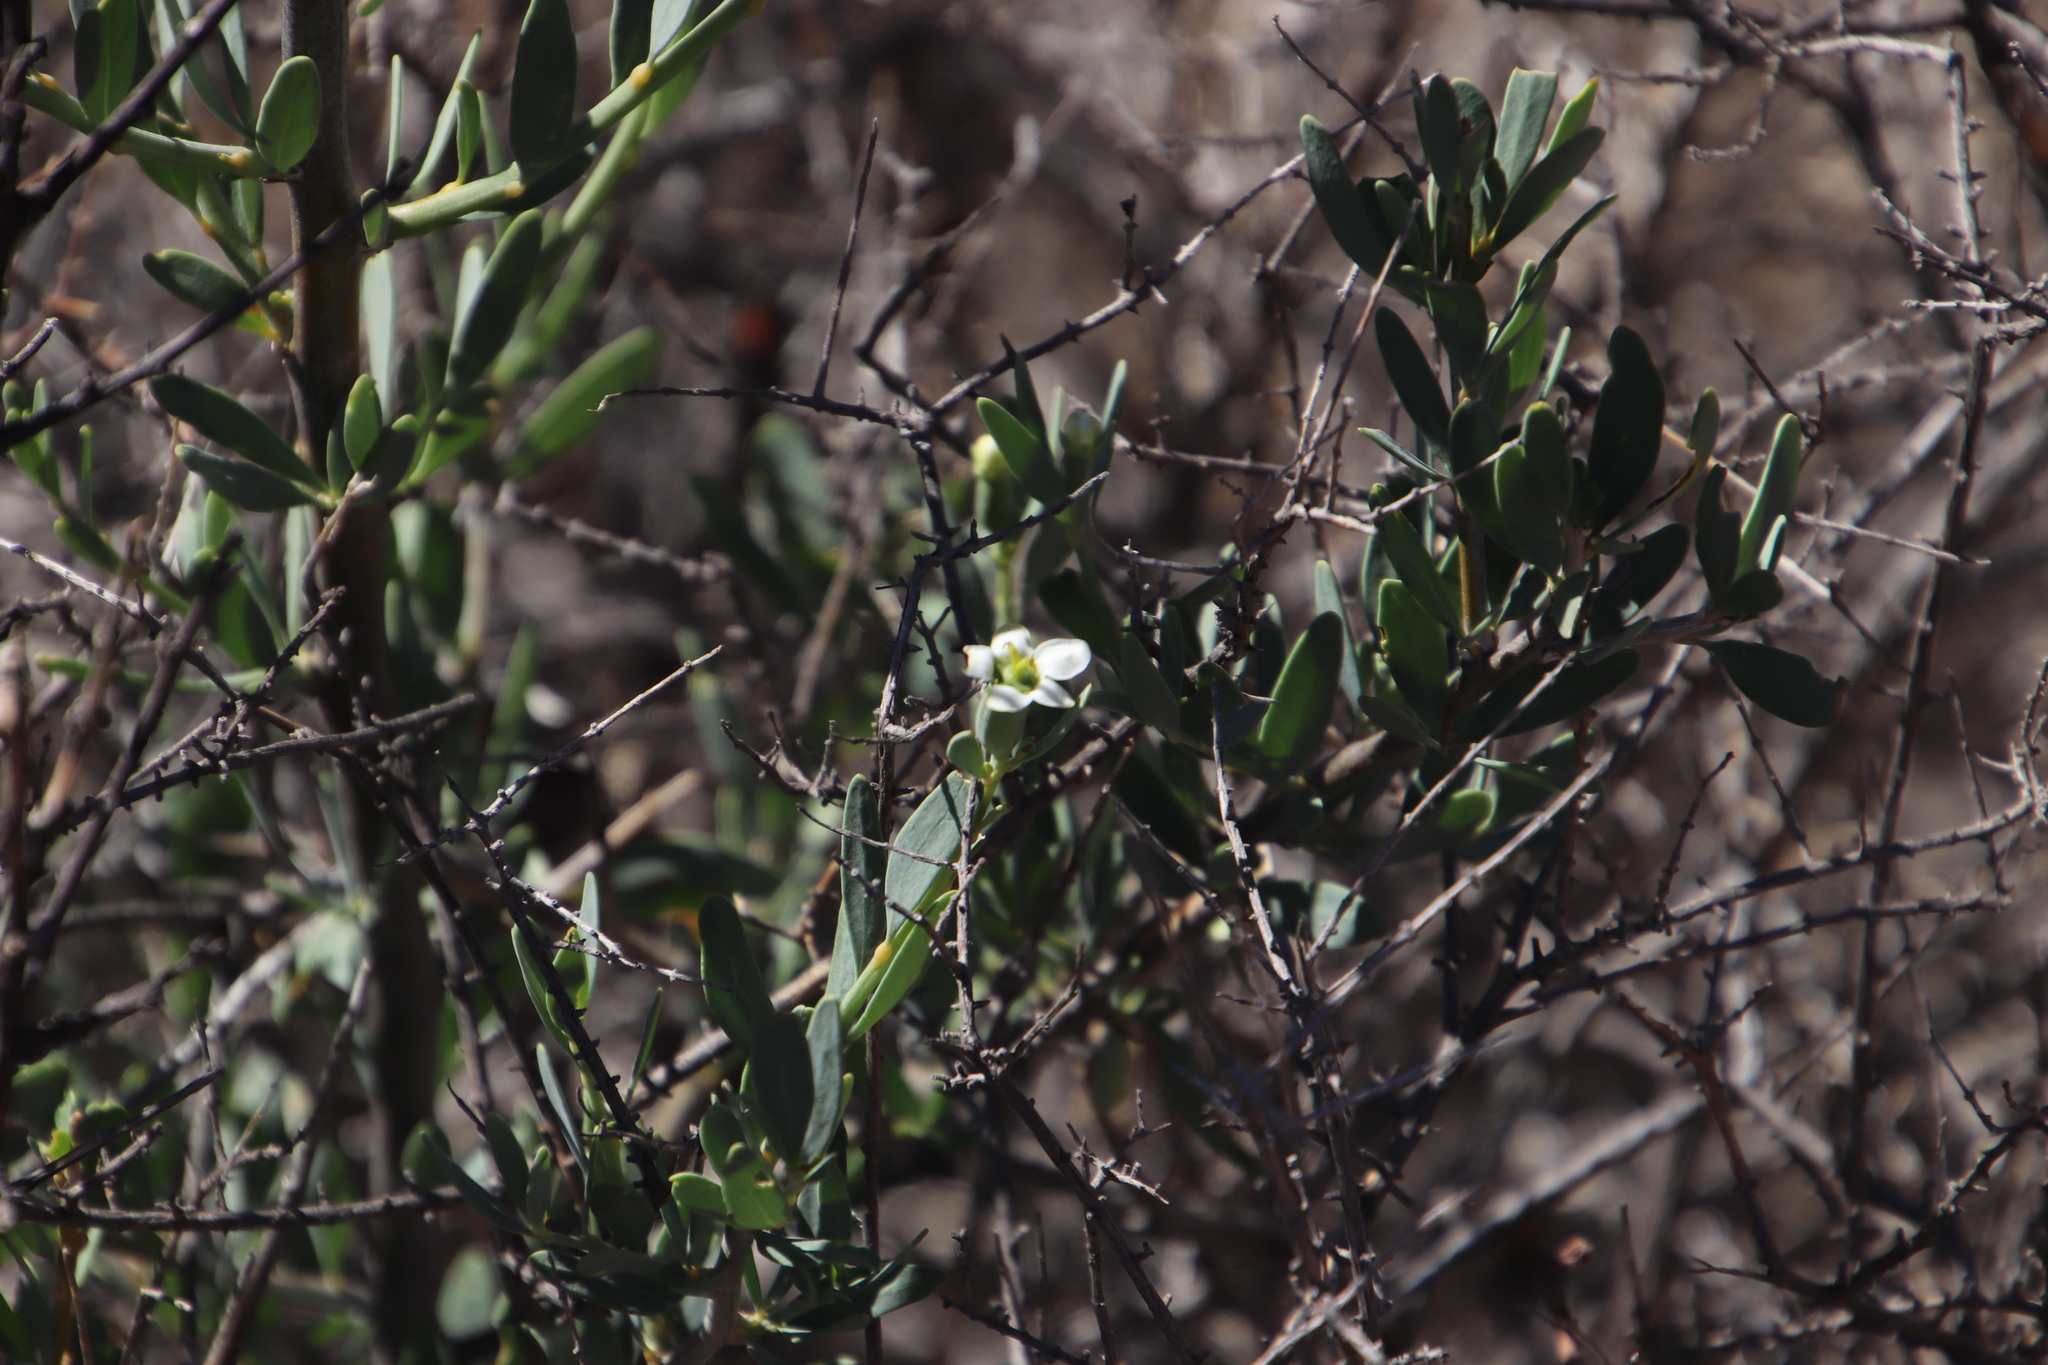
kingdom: Plantae
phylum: Tracheophyta
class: Magnoliopsida
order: Solanales
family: Montiniaceae
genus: Montinia
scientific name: Montinia caryophyllacea
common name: Wild clove-bush
